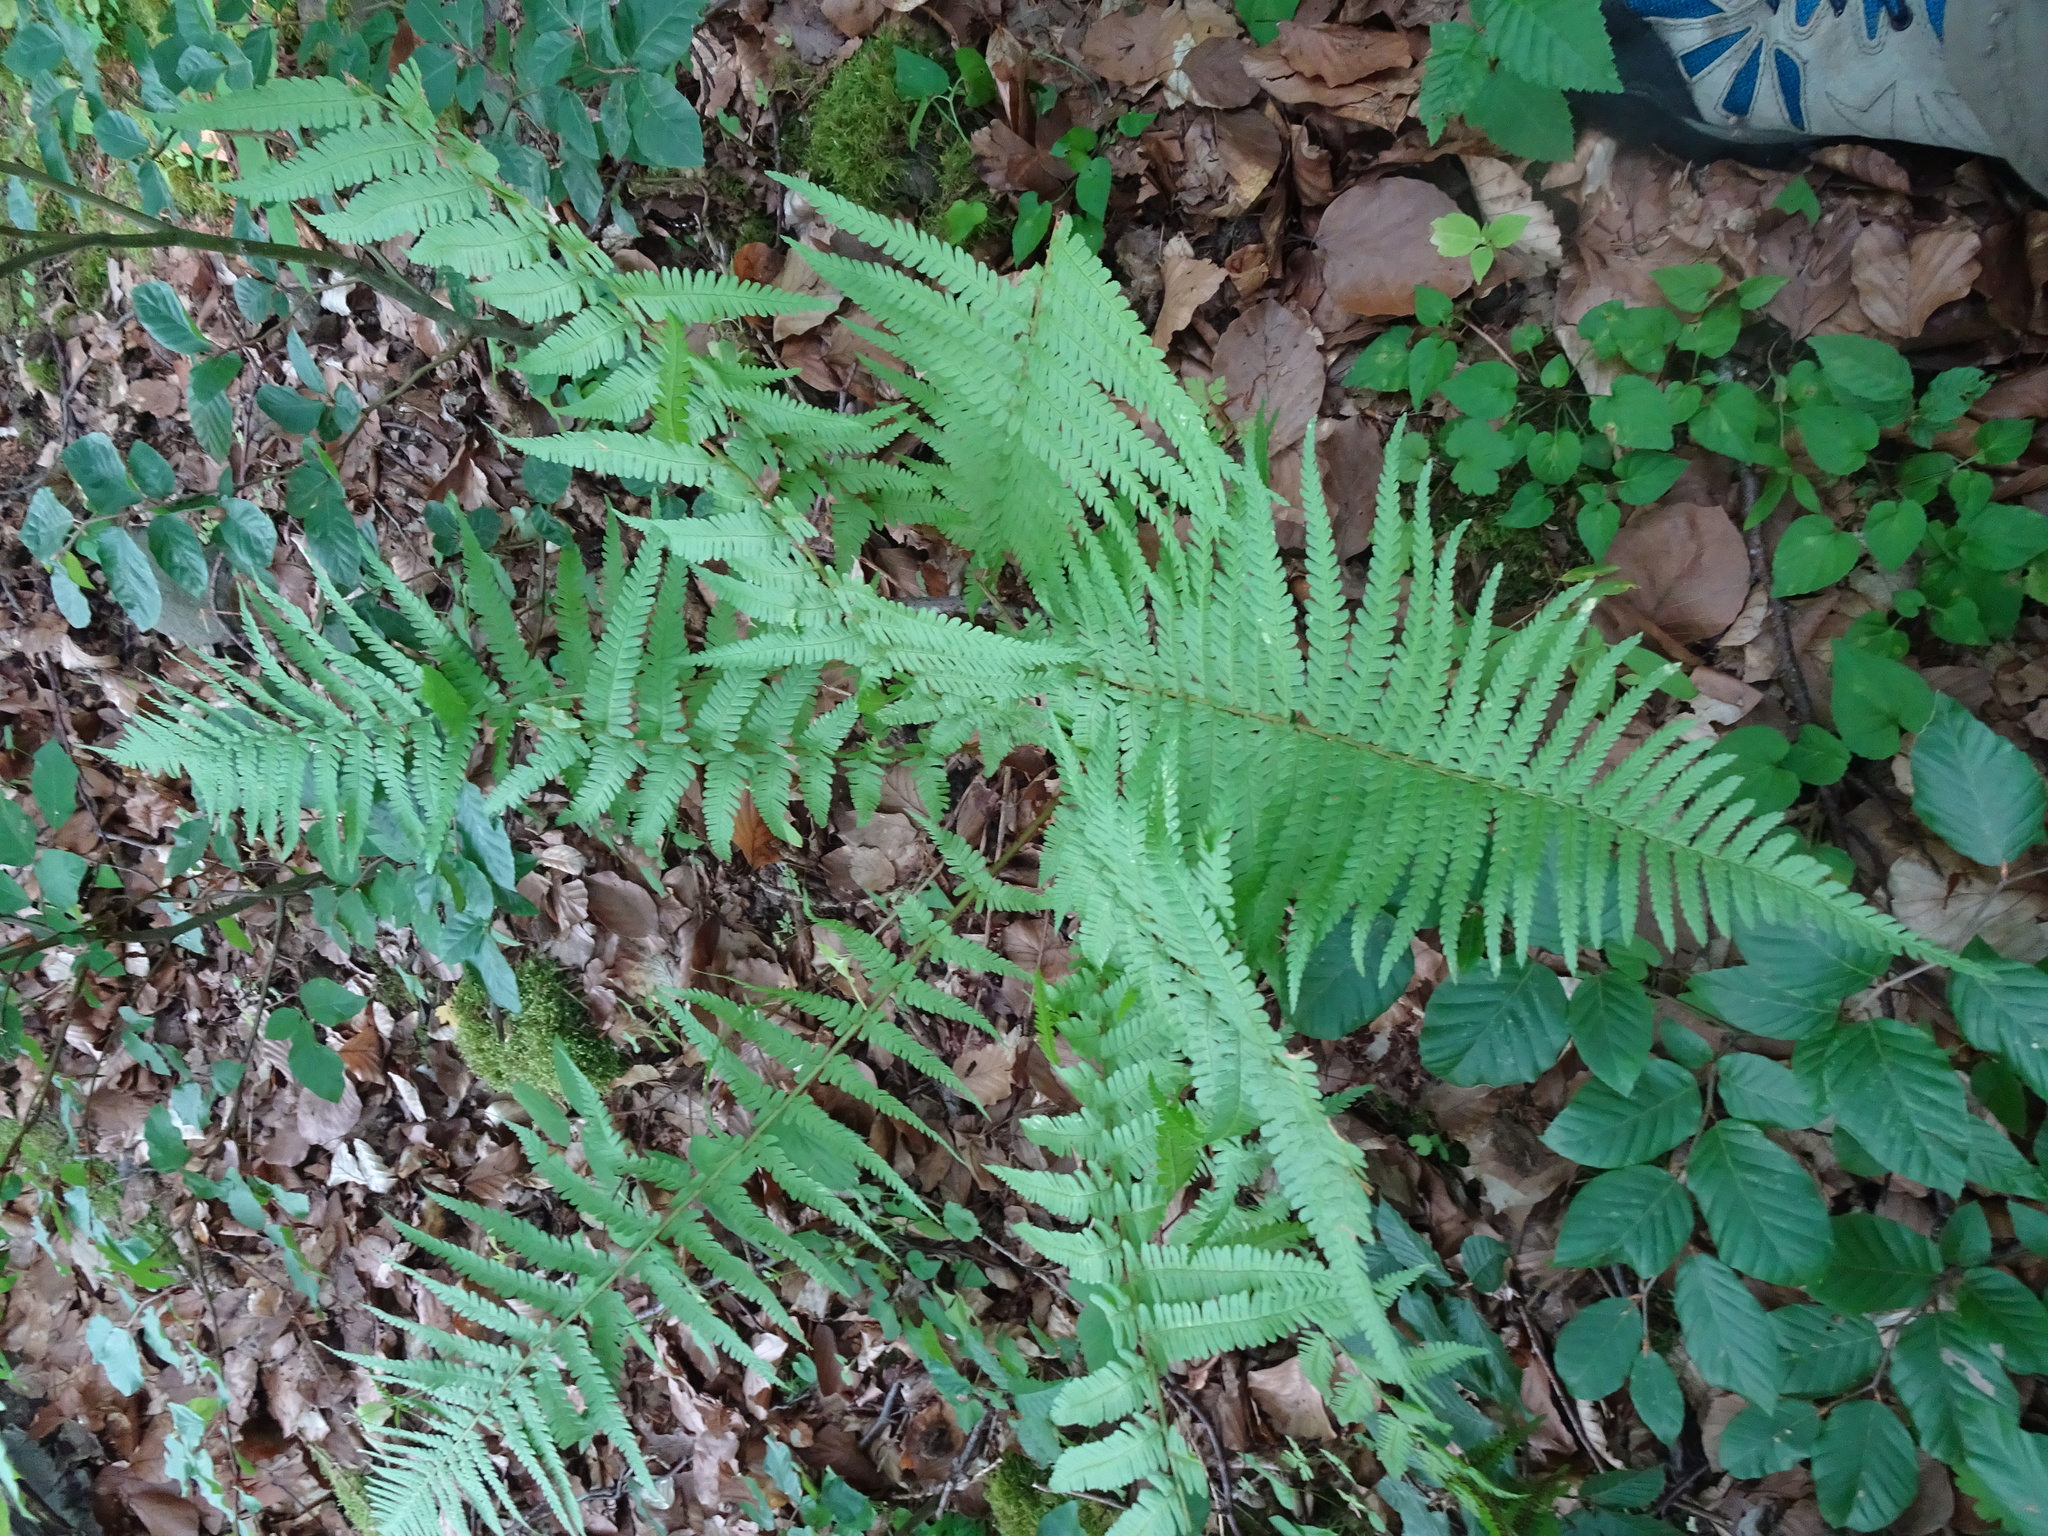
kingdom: Plantae
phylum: Tracheophyta
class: Polypodiopsida
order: Polypodiales
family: Dryopteridaceae
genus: Dryopteris
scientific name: Dryopteris filix-mas
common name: Male fern
